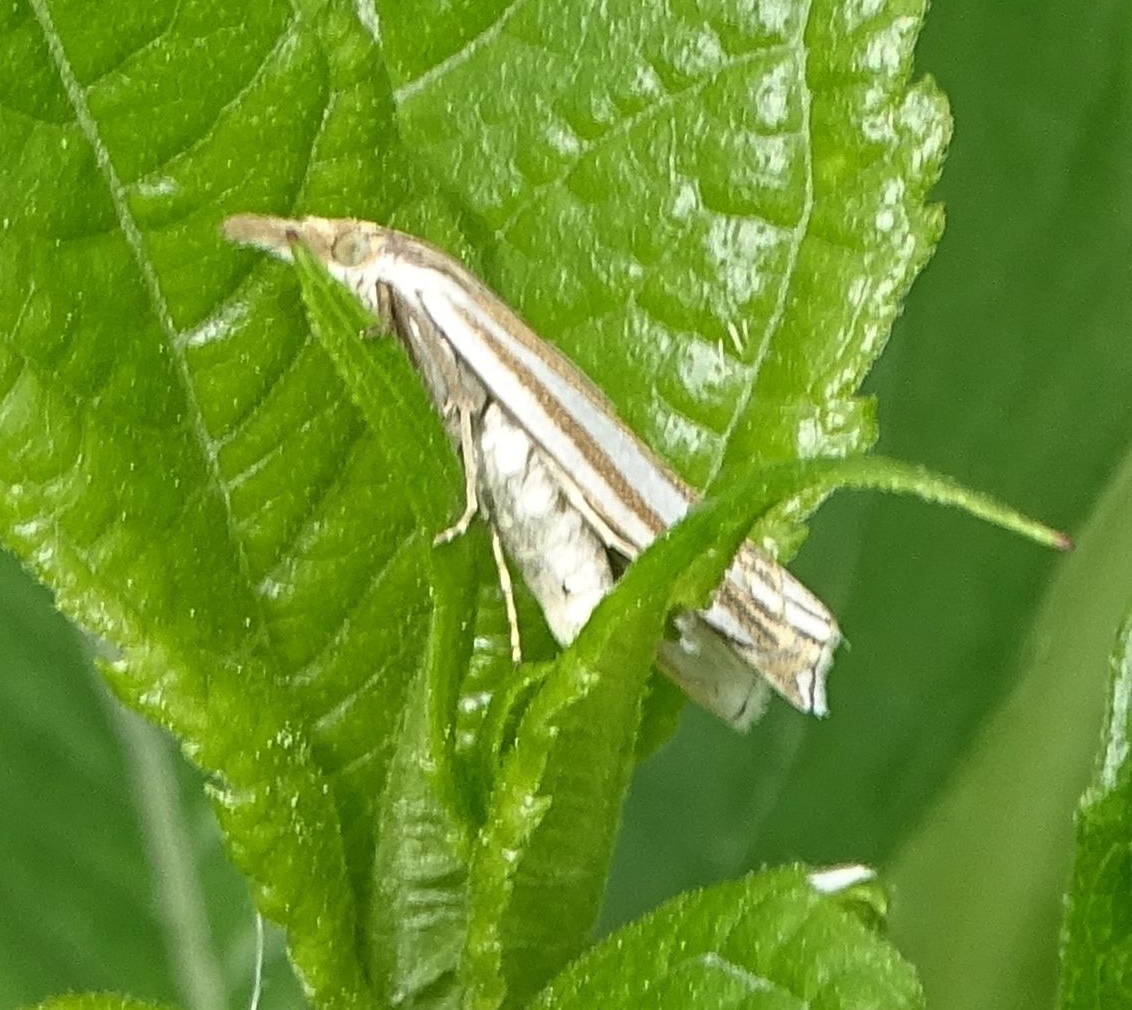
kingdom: Animalia
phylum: Arthropoda
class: Insecta
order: Lepidoptera
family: Crambidae
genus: Crambus
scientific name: Crambus laqueatellus
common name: Eastern grass-veneer
